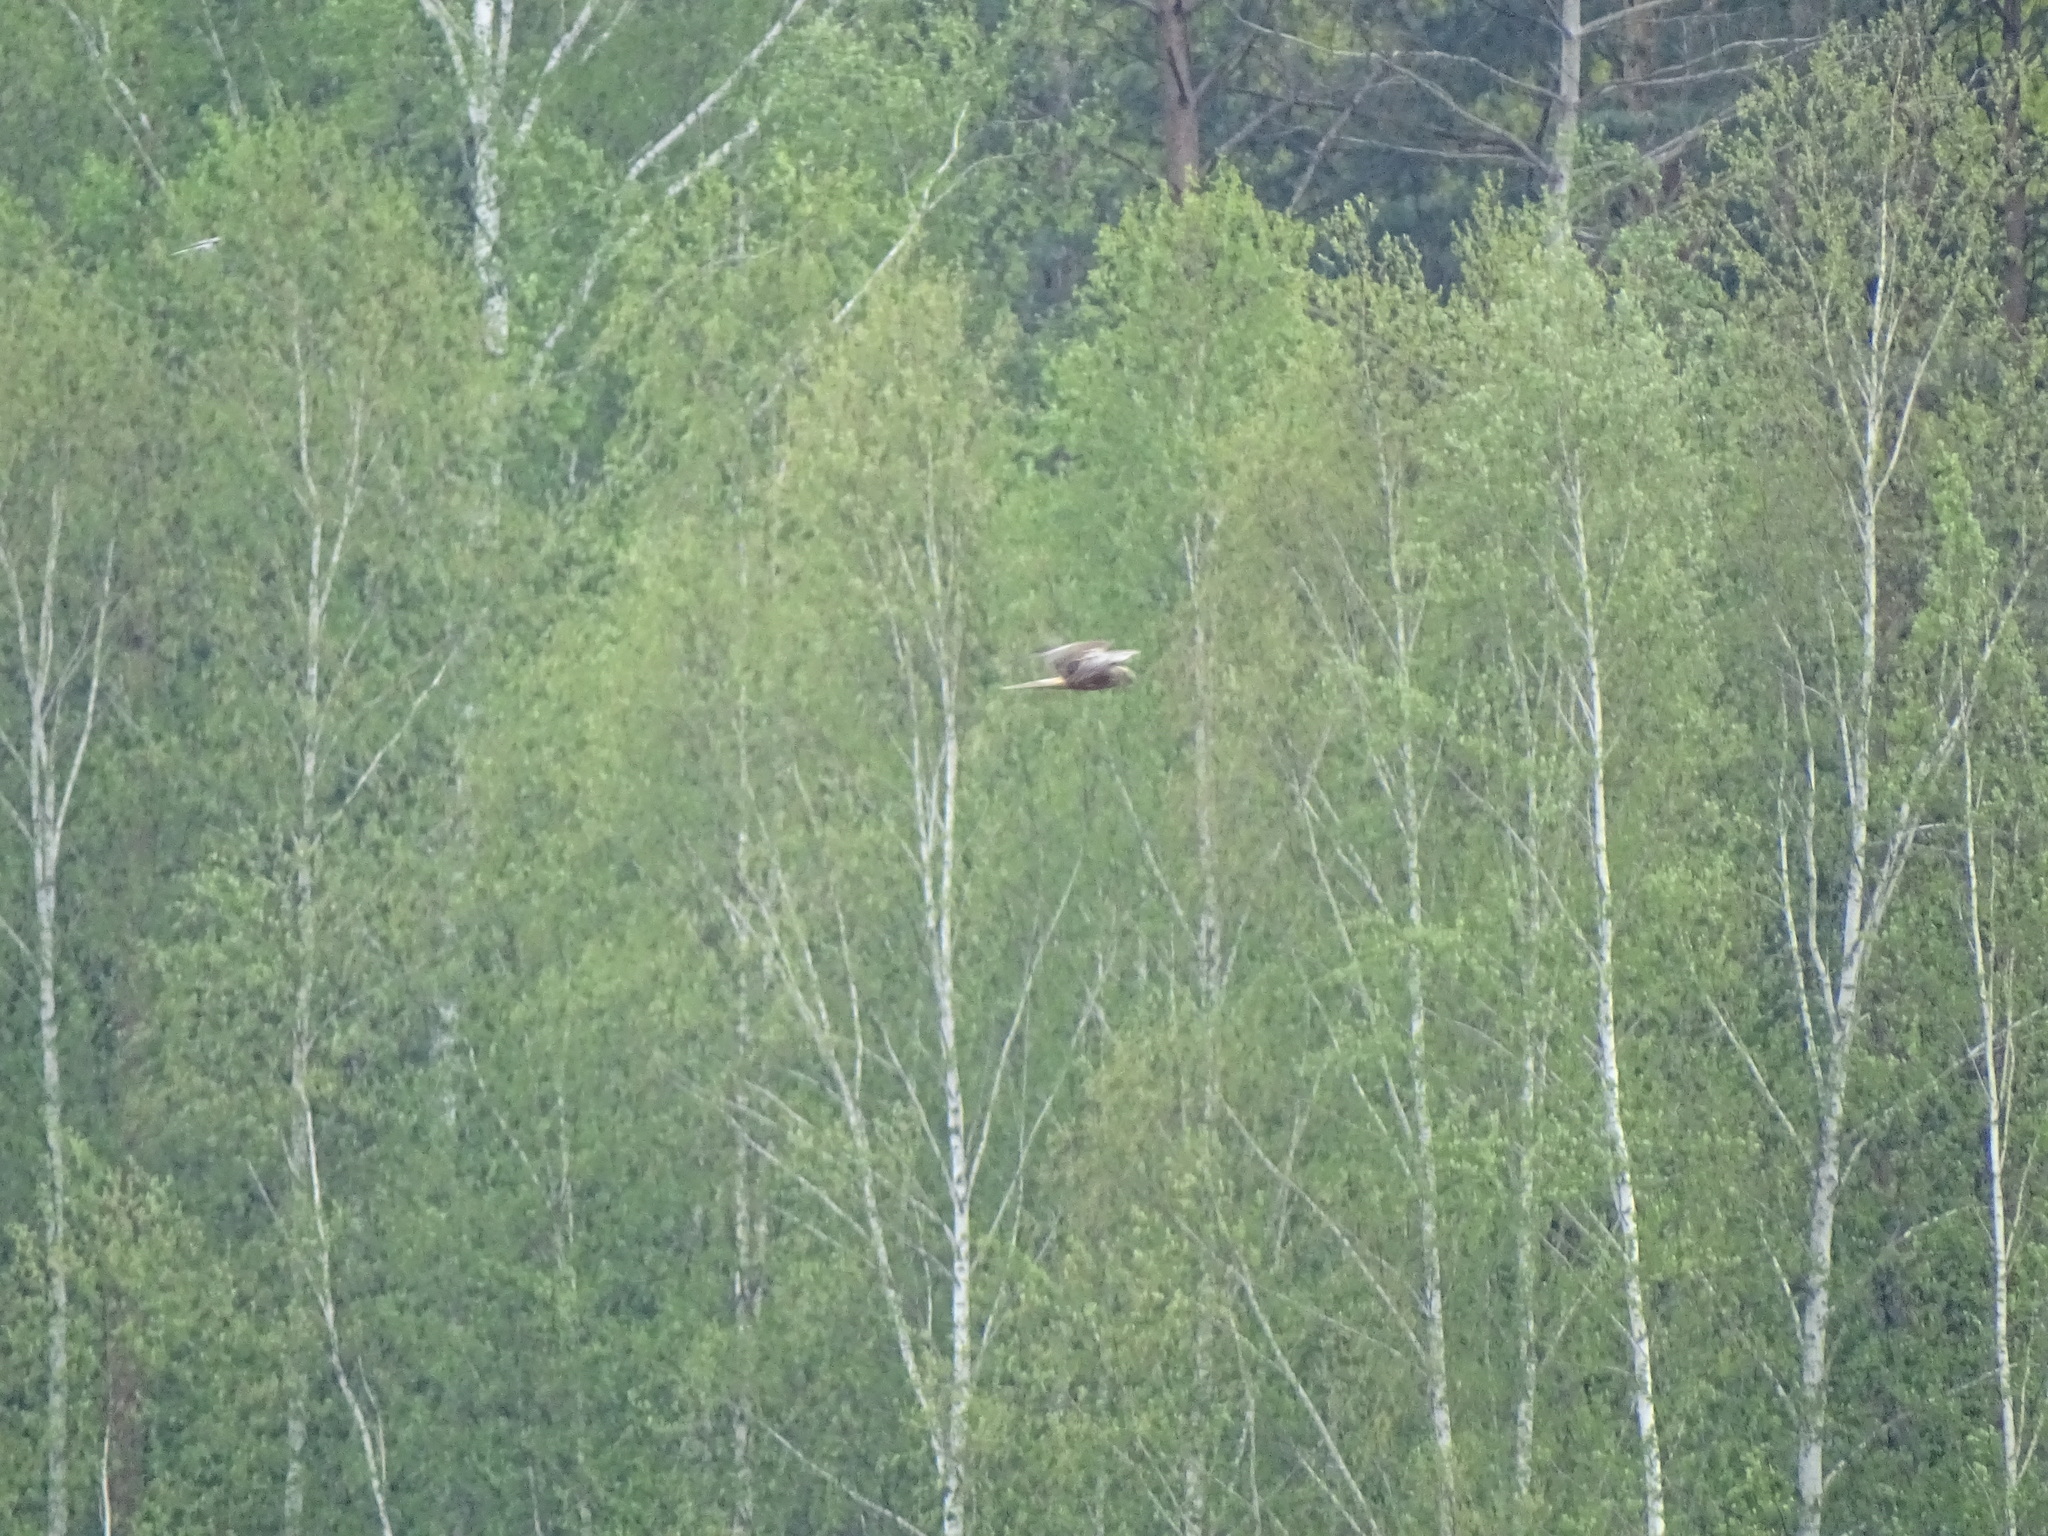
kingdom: Animalia
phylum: Chordata
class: Aves
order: Accipitriformes
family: Accipitridae
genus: Circus
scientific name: Circus aeruginosus
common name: Western marsh harrier
